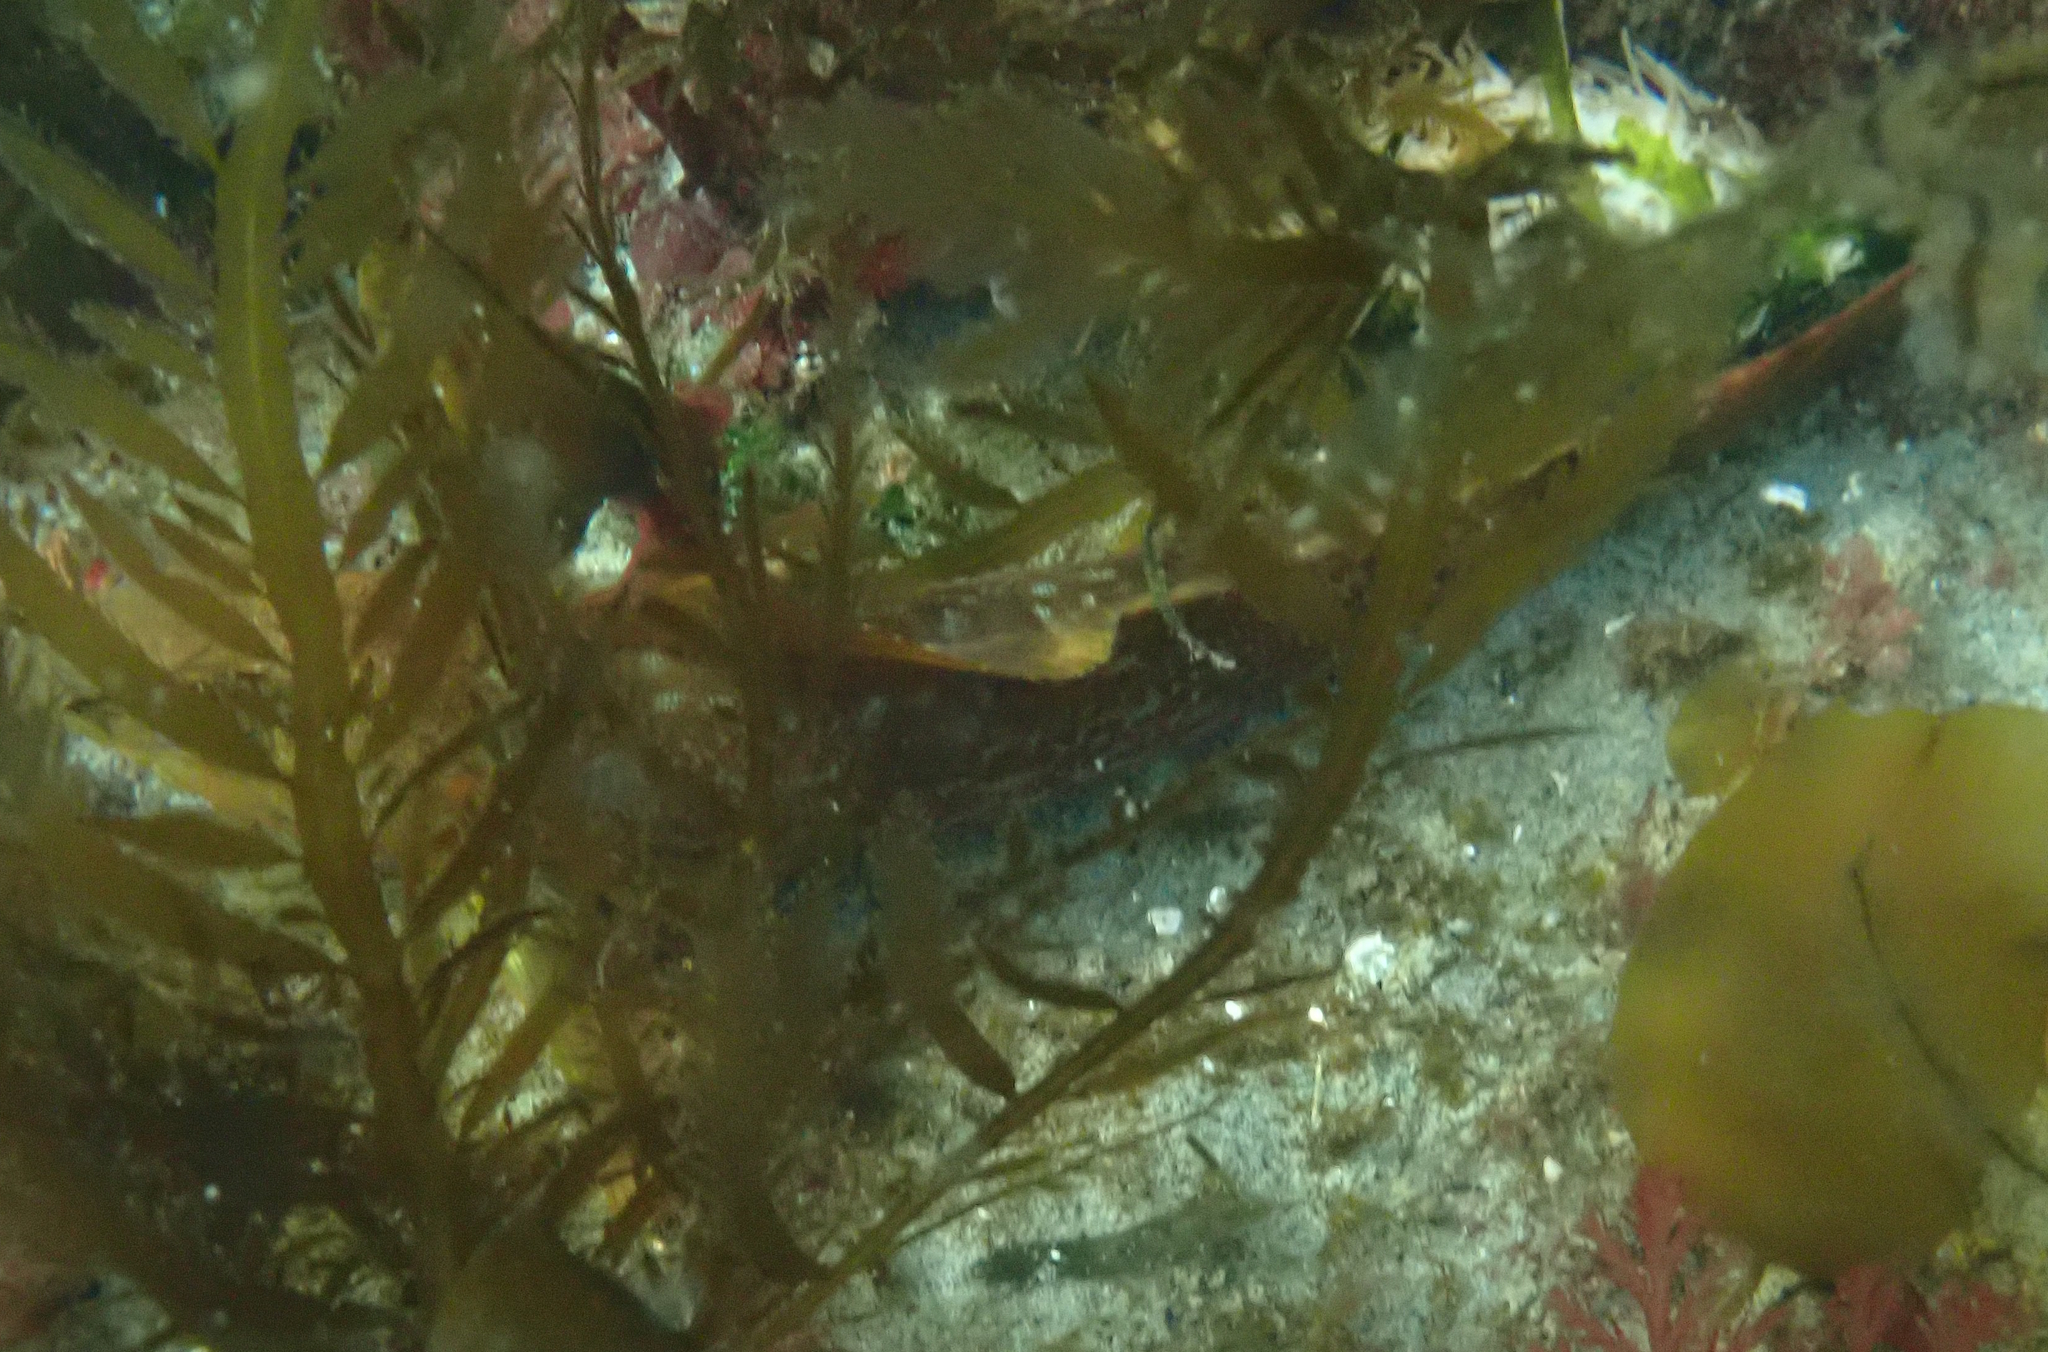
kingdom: Animalia
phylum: Chordata
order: Scorpaeniformes
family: Hexagrammidae
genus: Hexagrammos
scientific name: Hexagrammos decagrammus
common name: Kelp greenling
